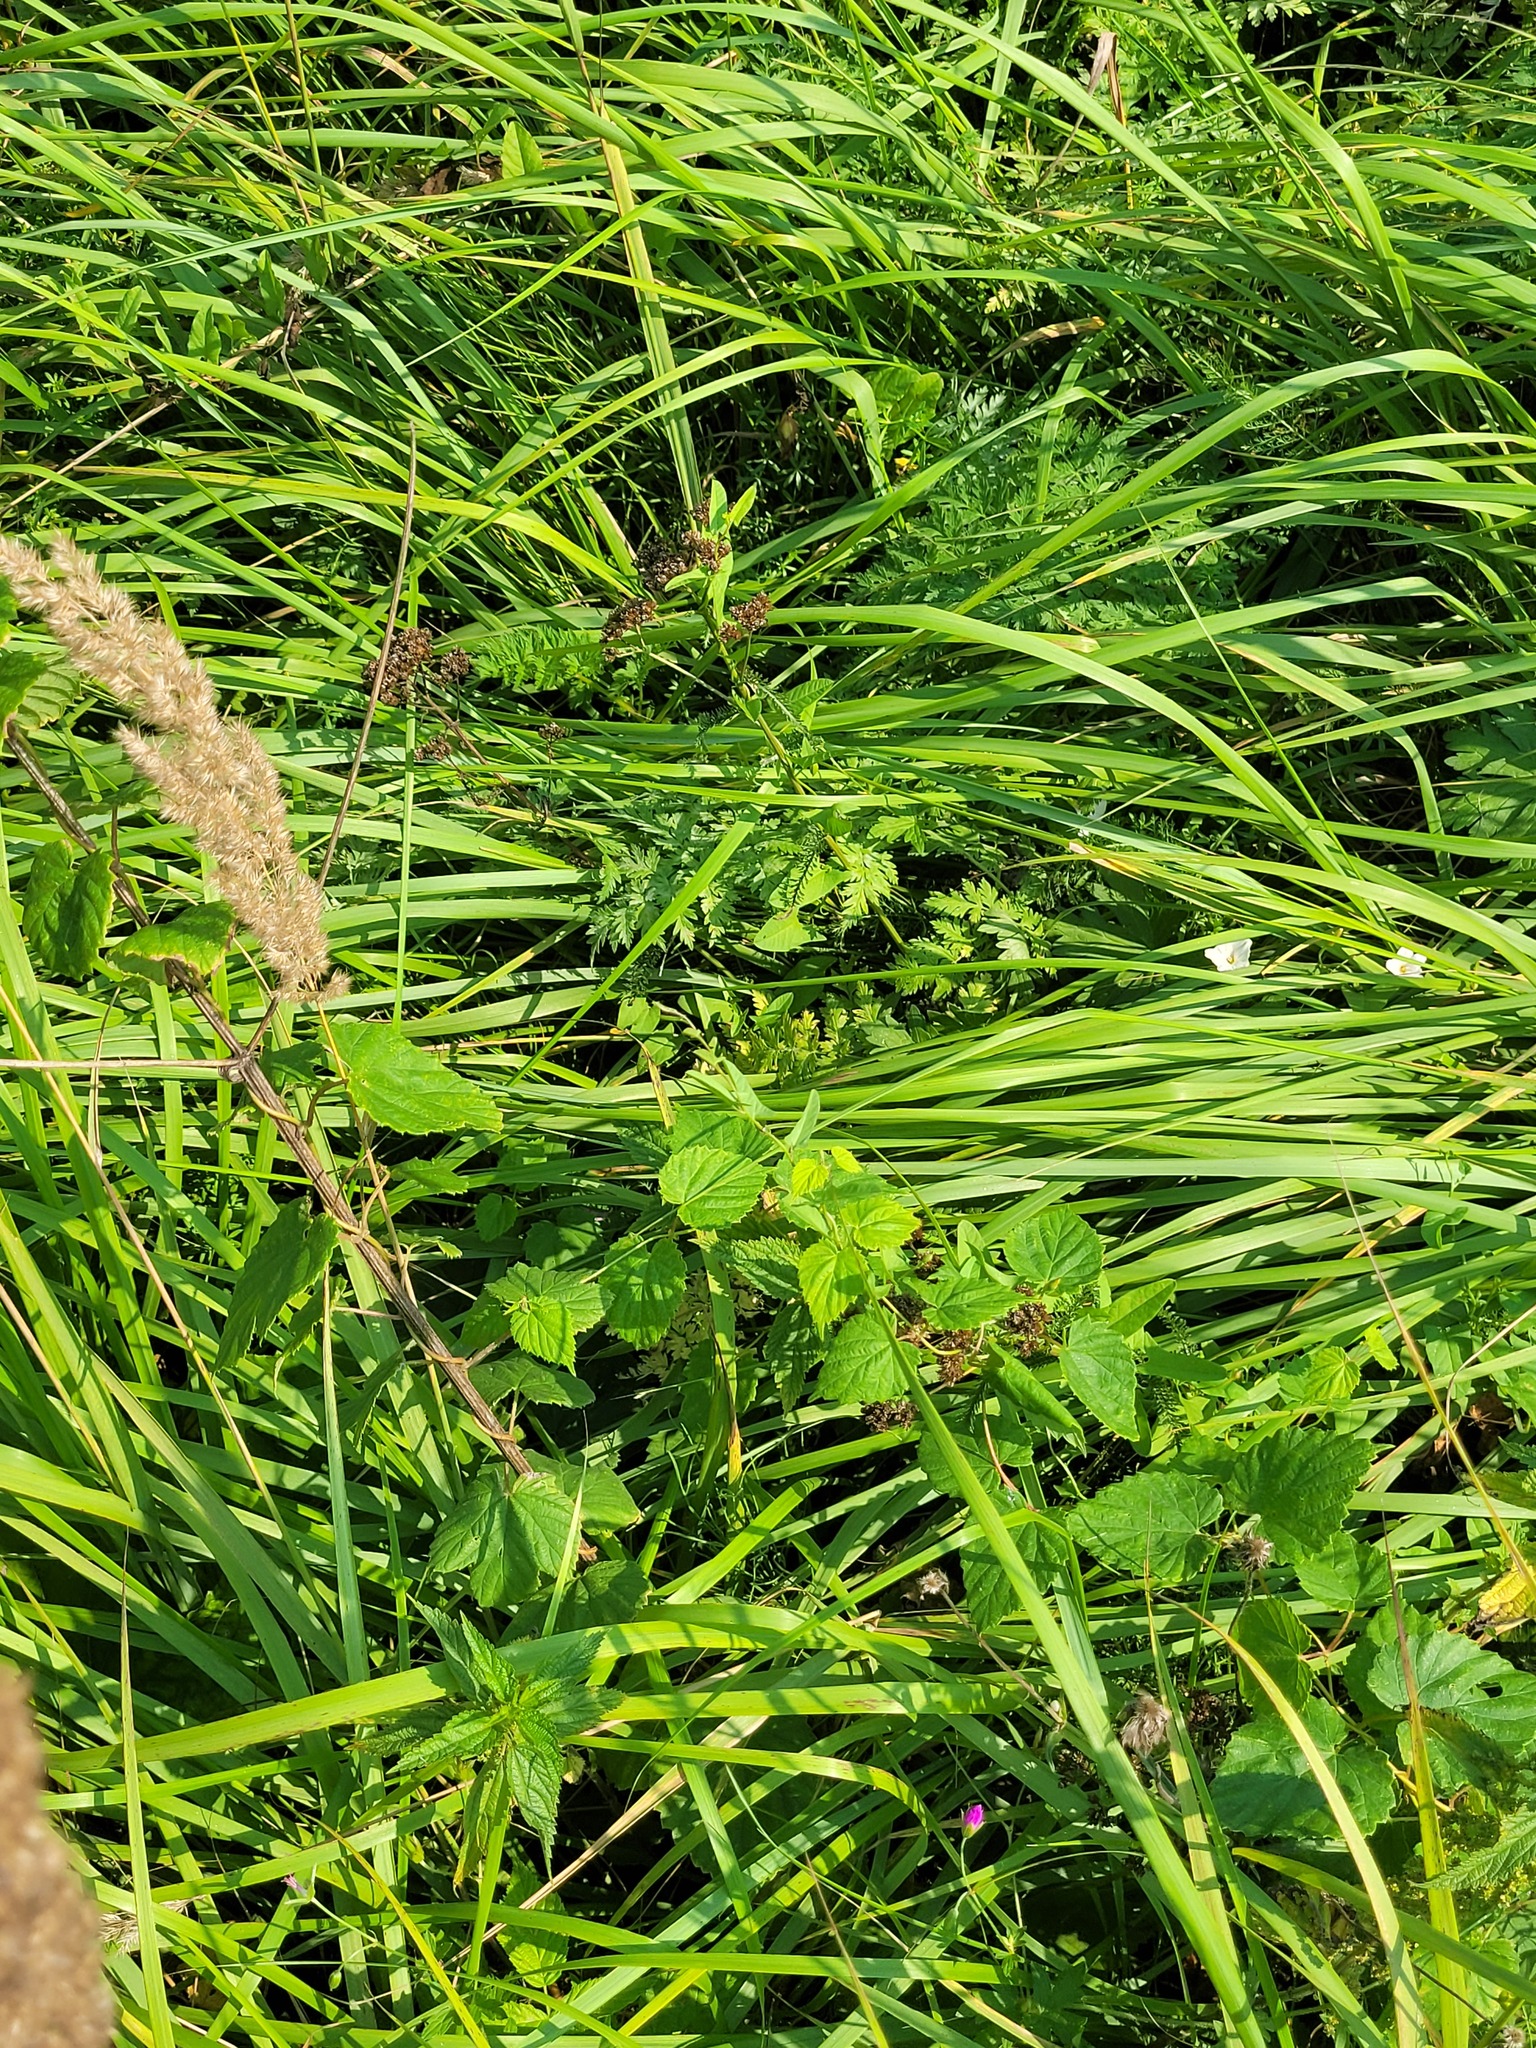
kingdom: Plantae
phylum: Tracheophyta
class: Magnoliopsida
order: Rosales
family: Cannabaceae
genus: Humulus
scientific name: Humulus lupulus
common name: Hop
